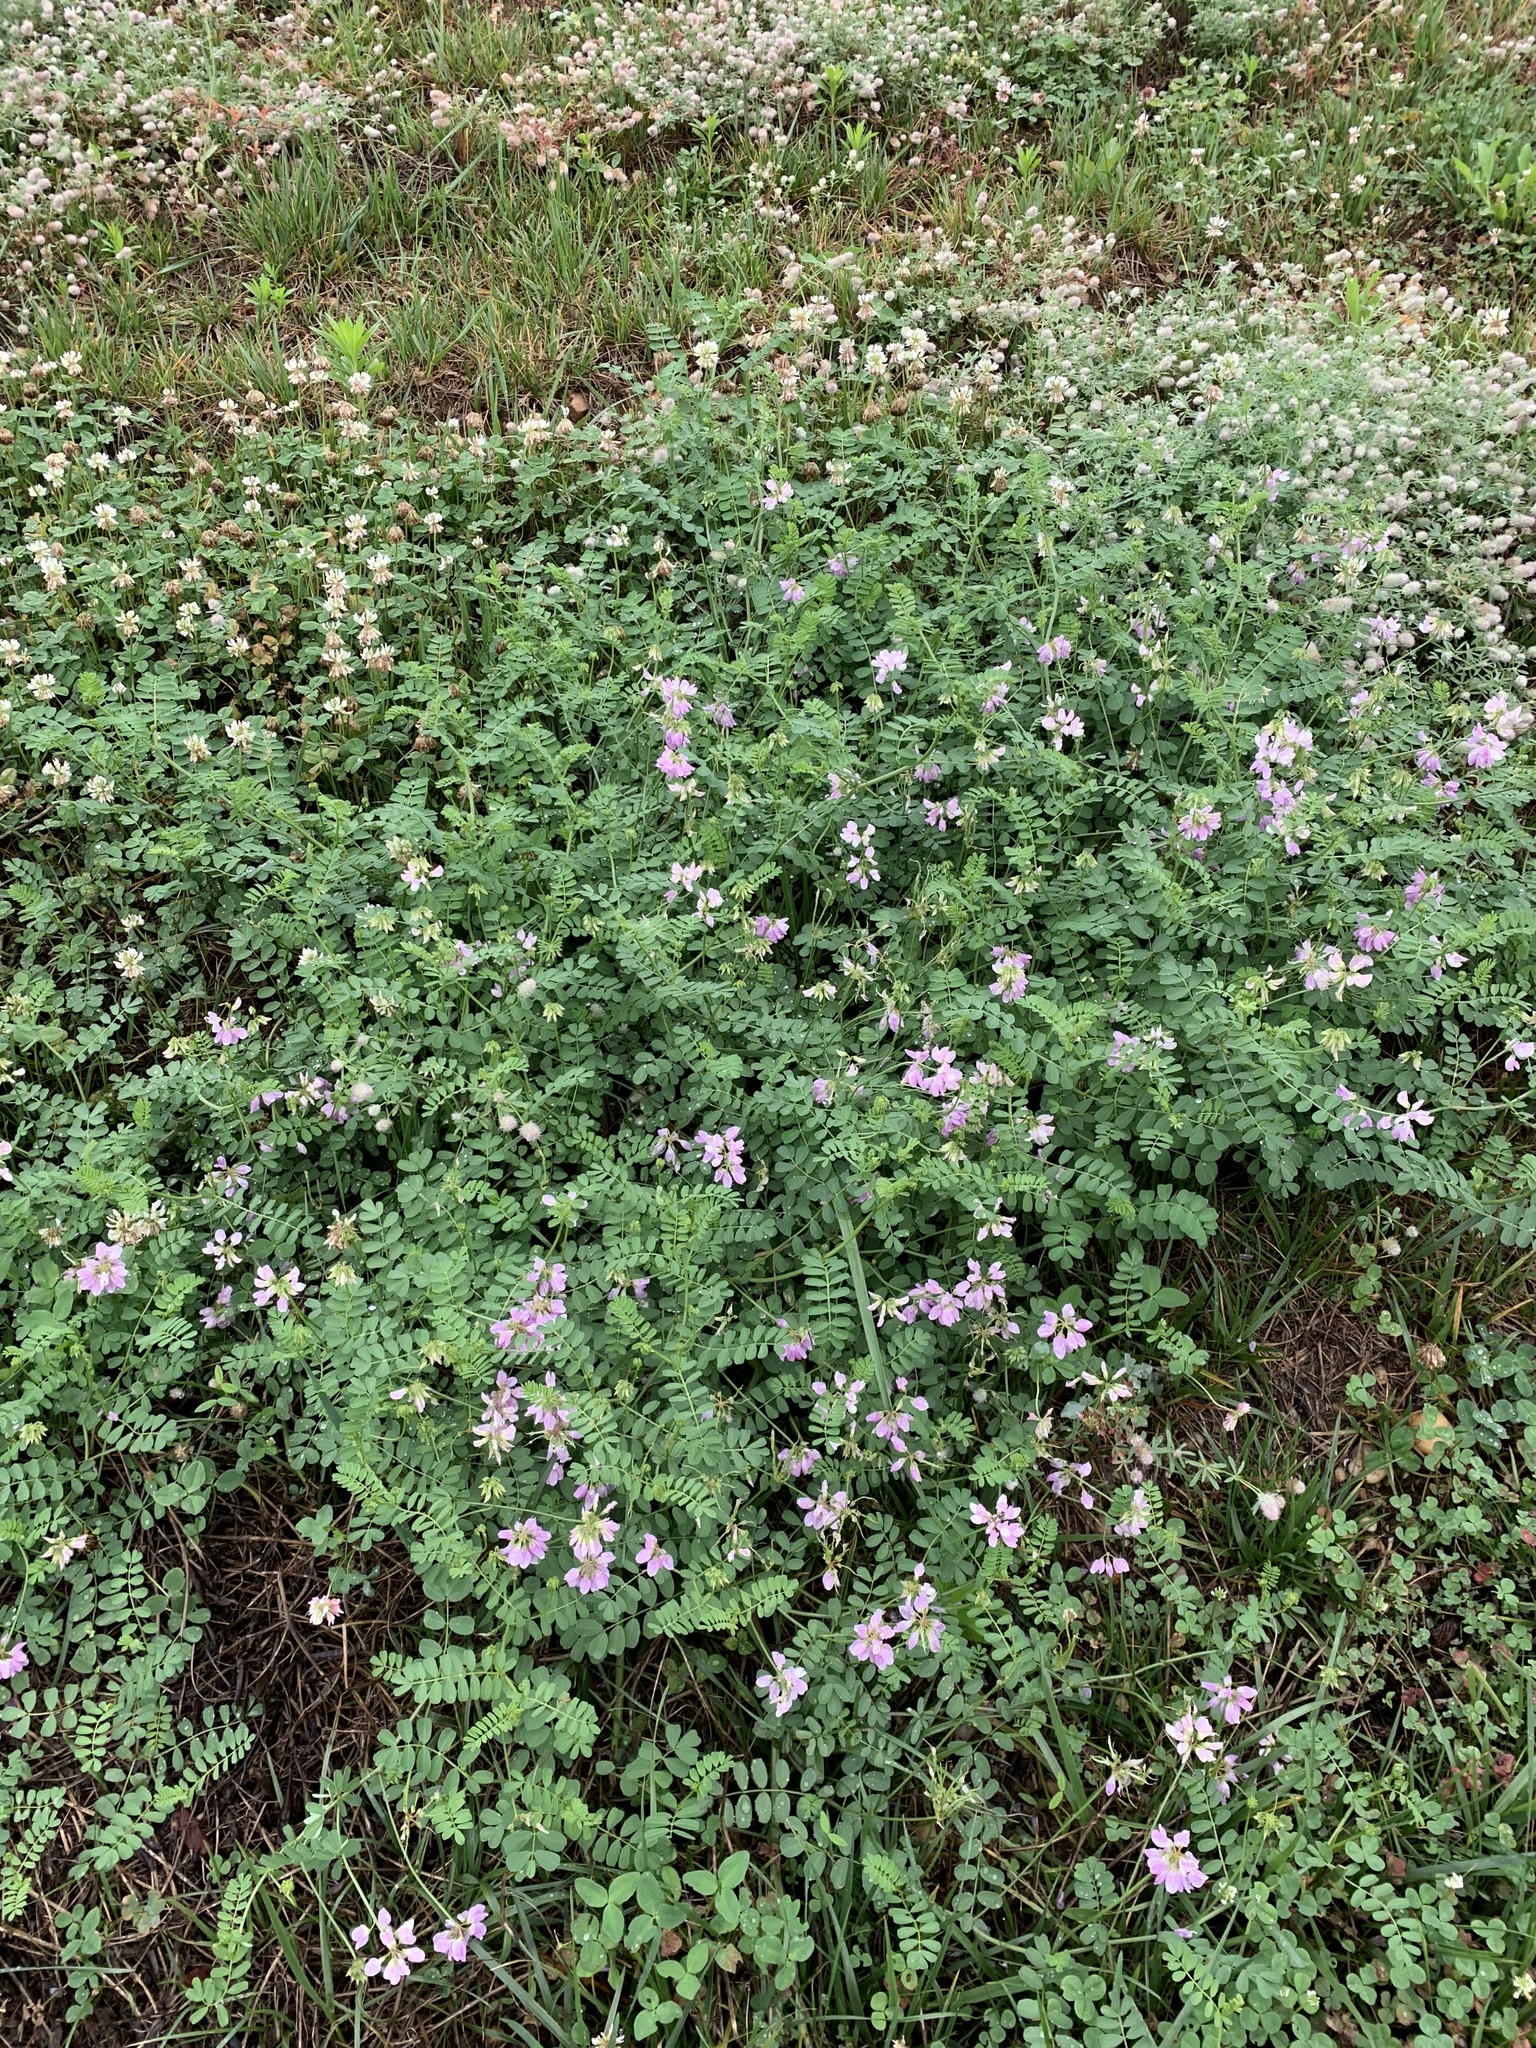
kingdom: Plantae
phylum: Tracheophyta
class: Magnoliopsida
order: Fabales
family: Fabaceae
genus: Coronilla
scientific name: Coronilla varia
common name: Crownvetch
